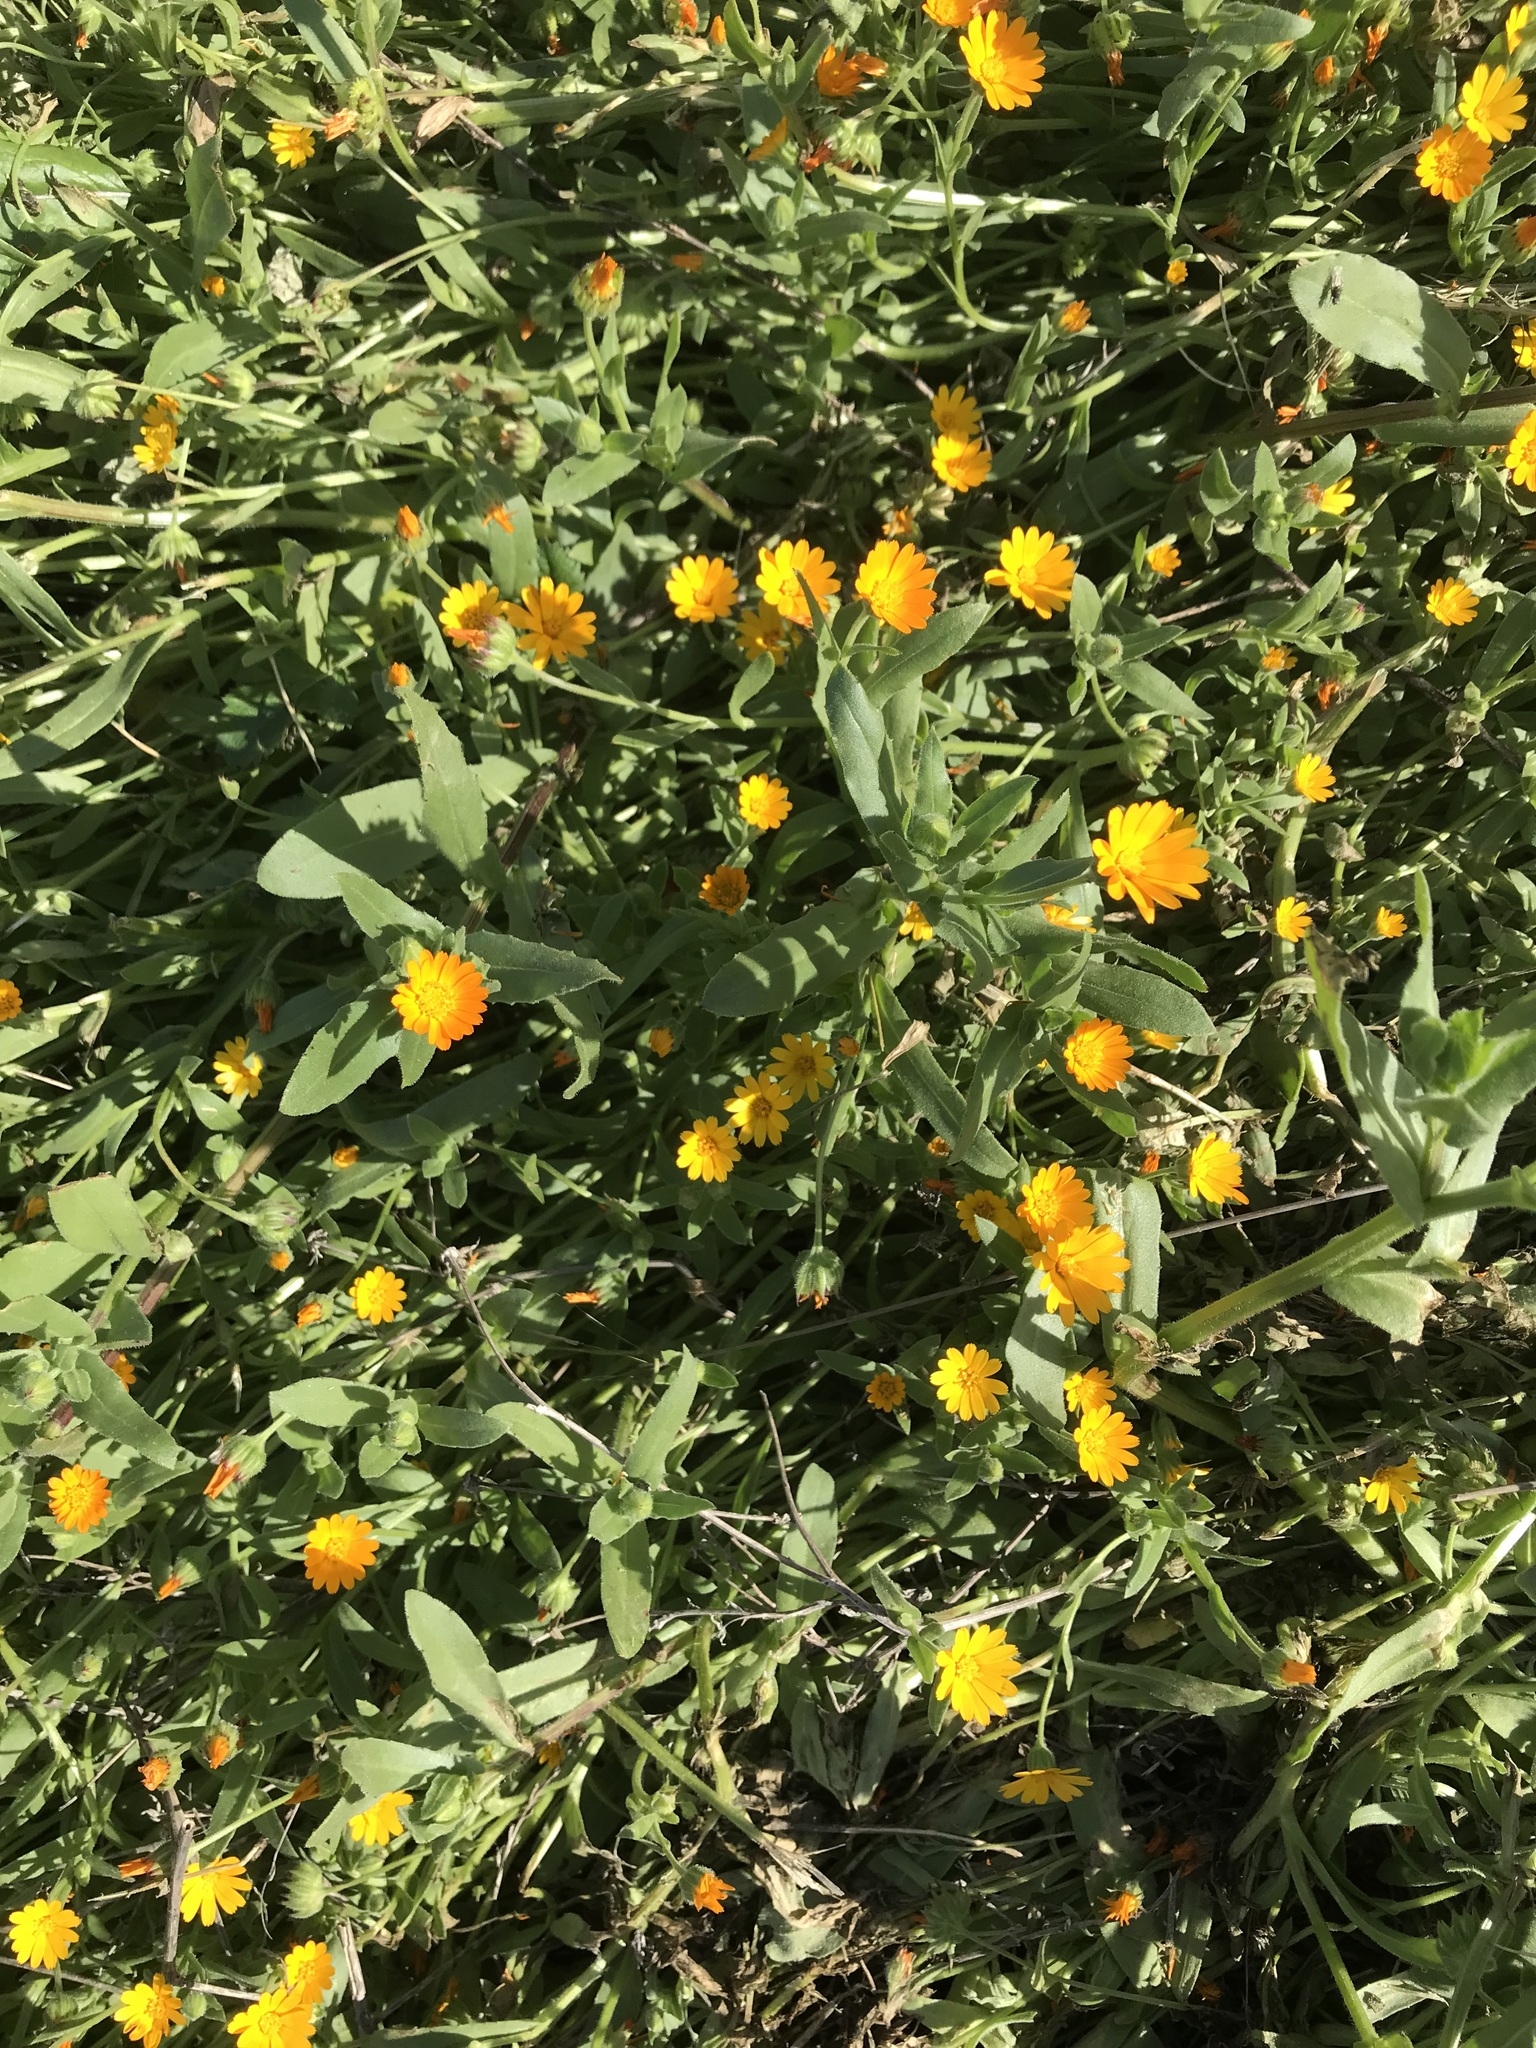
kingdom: Plantae
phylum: Tracheophyta
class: Magnoliopsida
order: Asterales
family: Asteraceae
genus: Calendula
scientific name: Calendula arvensis
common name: Field marigold
